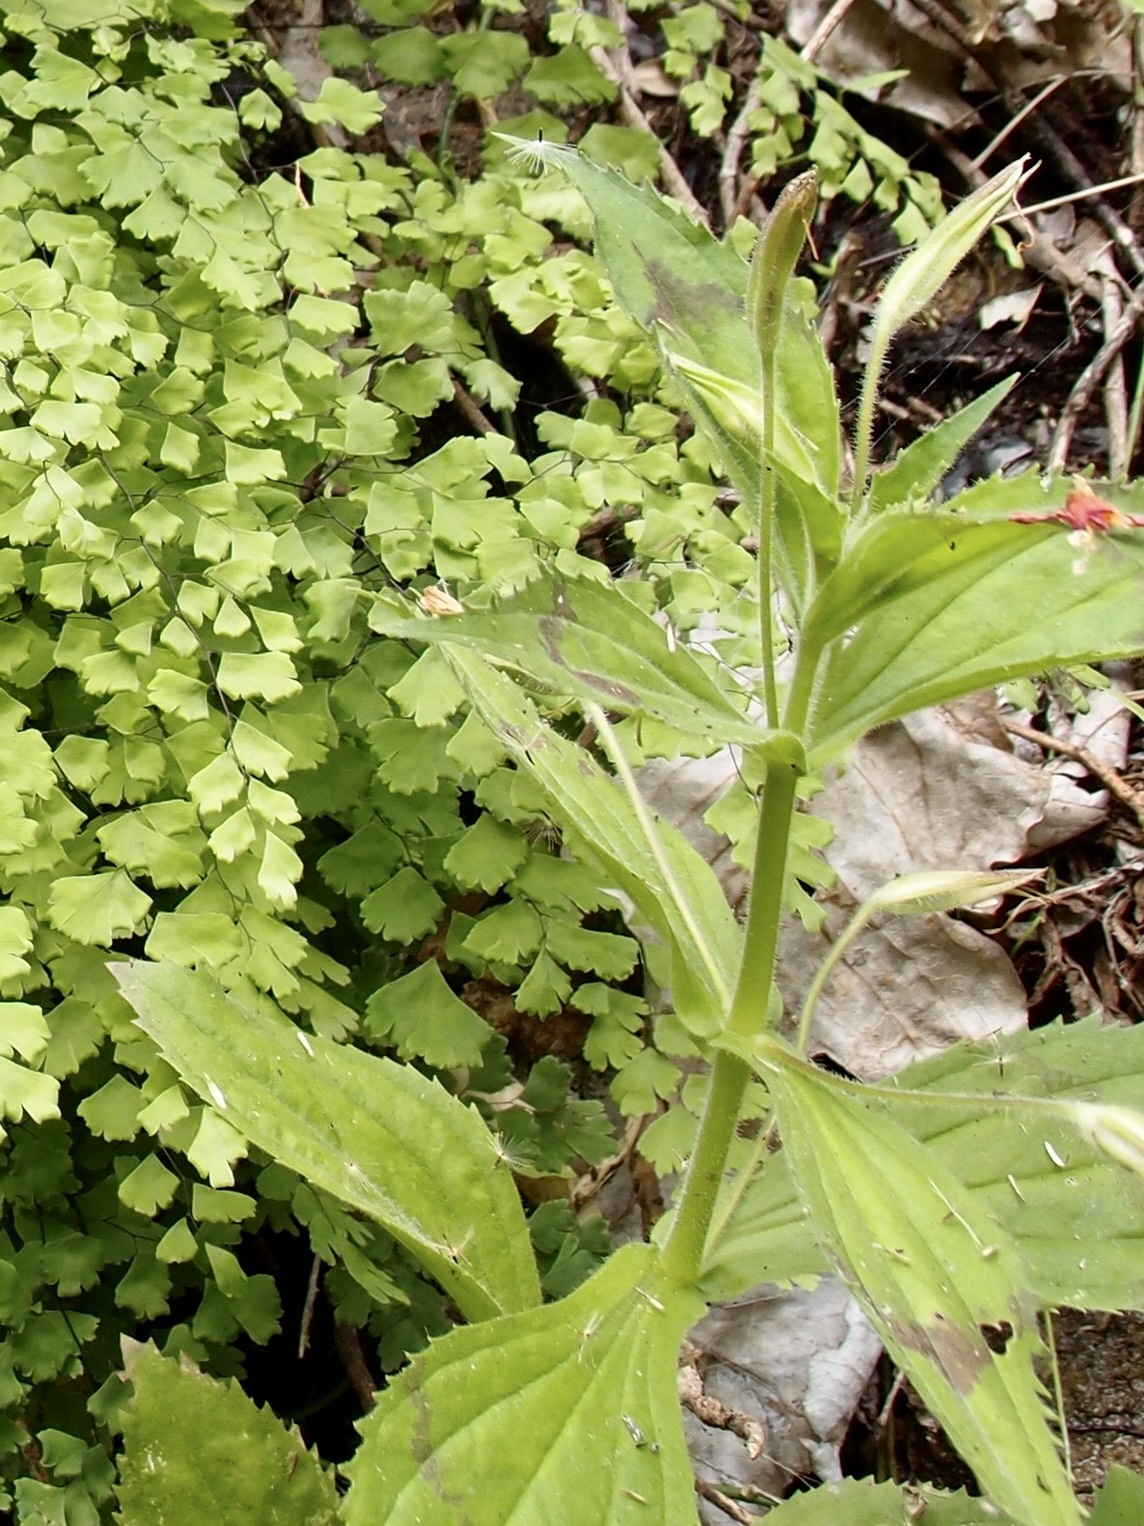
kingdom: Plantae
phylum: Tracheophyta
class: Magnoliopsida
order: Lamiales
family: Phrymaceae
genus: Erythranthe
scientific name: Erythranthe verbenacea
